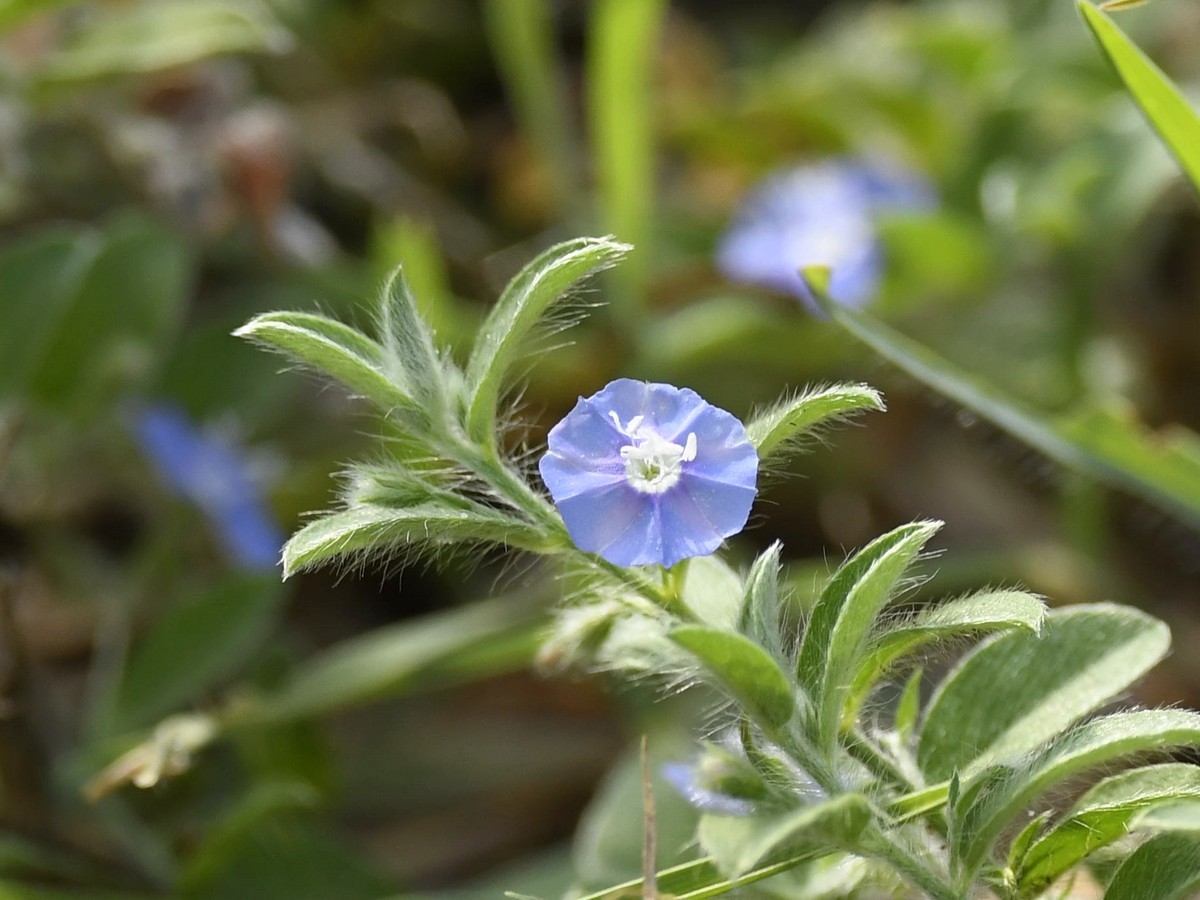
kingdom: Plantae
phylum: Tracheophyta
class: Magnoliopsida
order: Solanales
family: Convolvulaceae
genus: Evolvulus
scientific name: Evolvulus alsinoides
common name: Slender dwarf morning-glory
